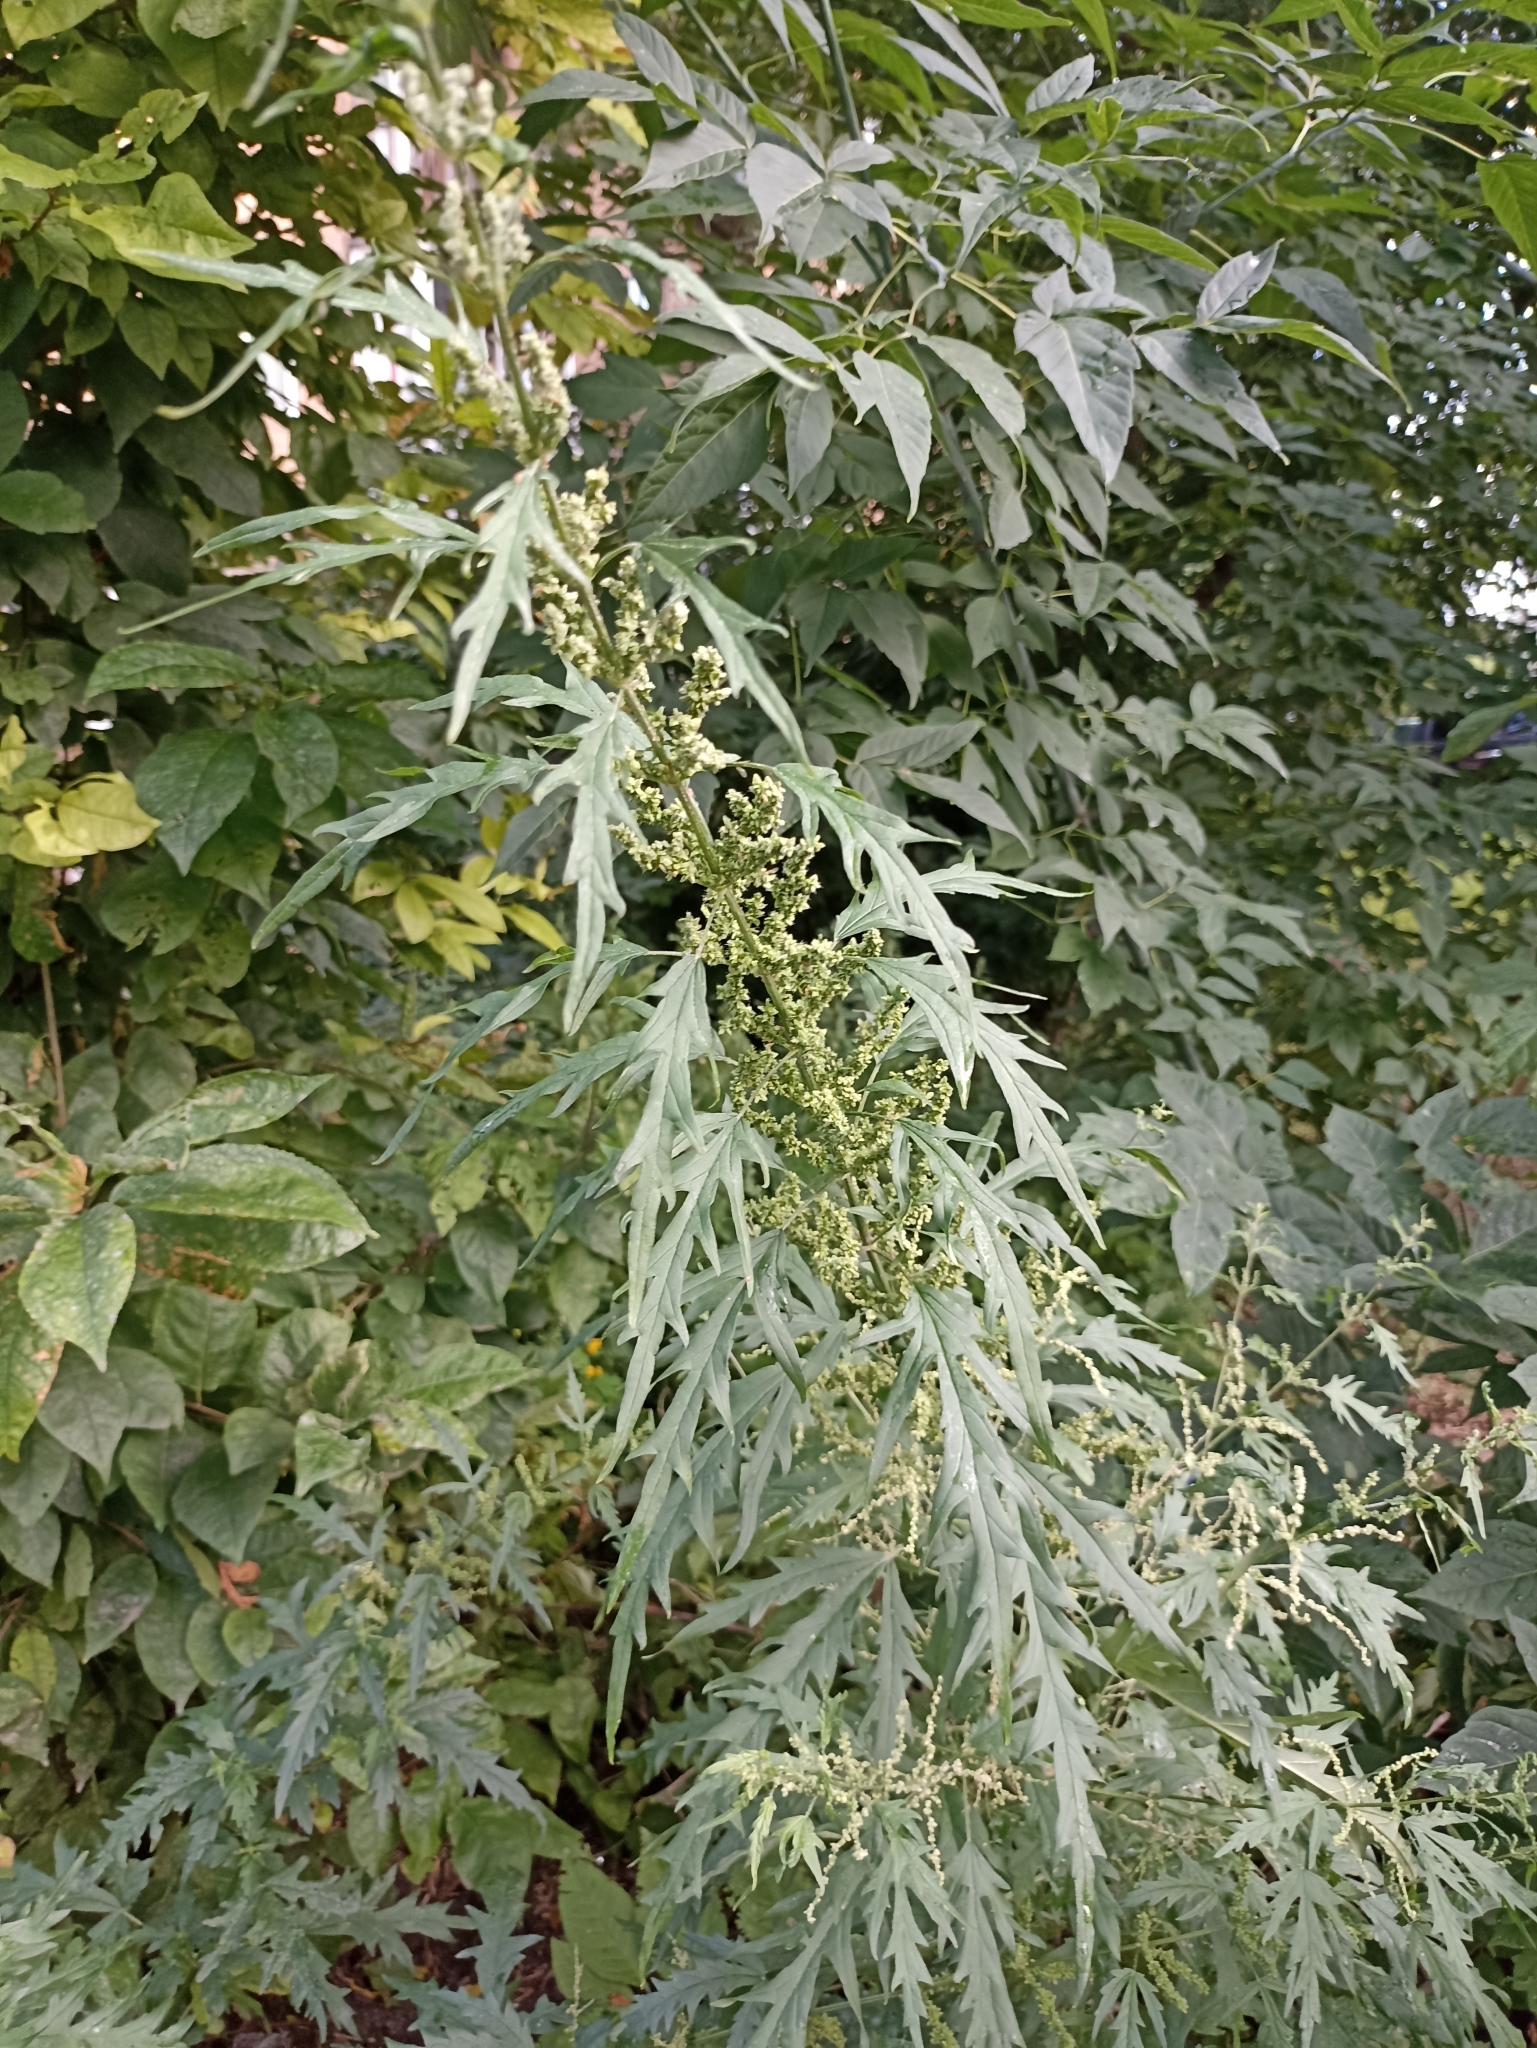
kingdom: Plantae
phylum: Tracheophyta
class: Magnoliopsida
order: Rosales
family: Urticaceae
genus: Urtica
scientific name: Urtica cannabina
